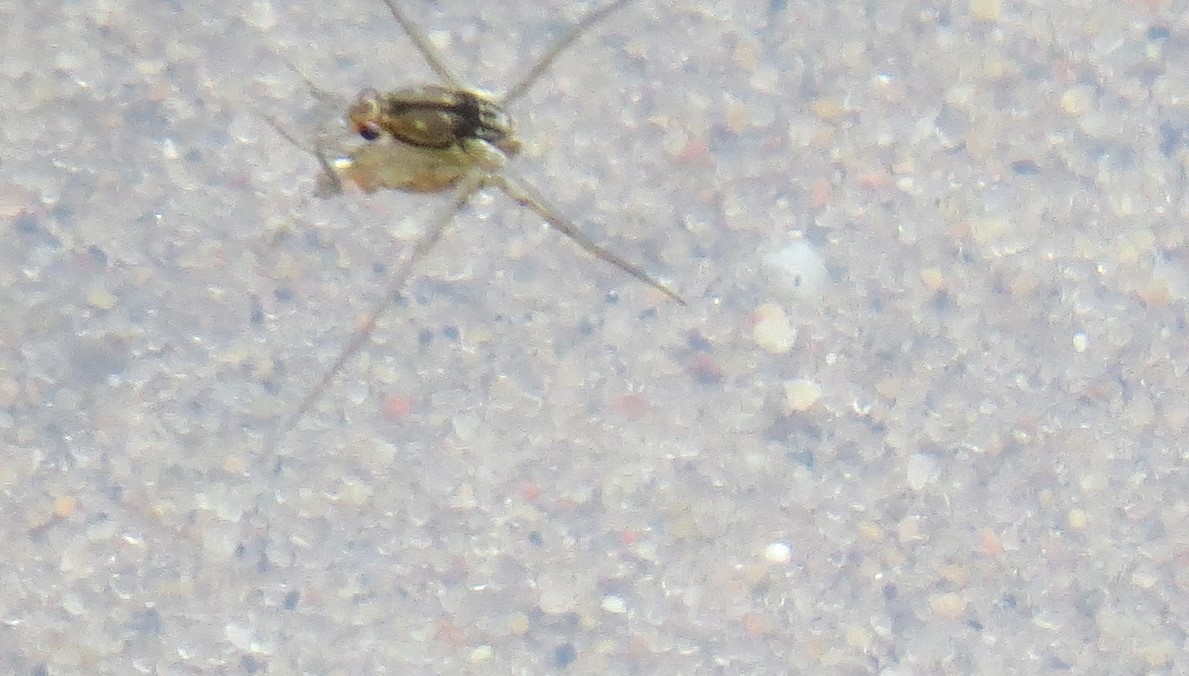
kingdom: Animalia
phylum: Arthropoda
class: Insecta
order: Hemiptera
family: Gerridae
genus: Trepobates
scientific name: Trepobates
